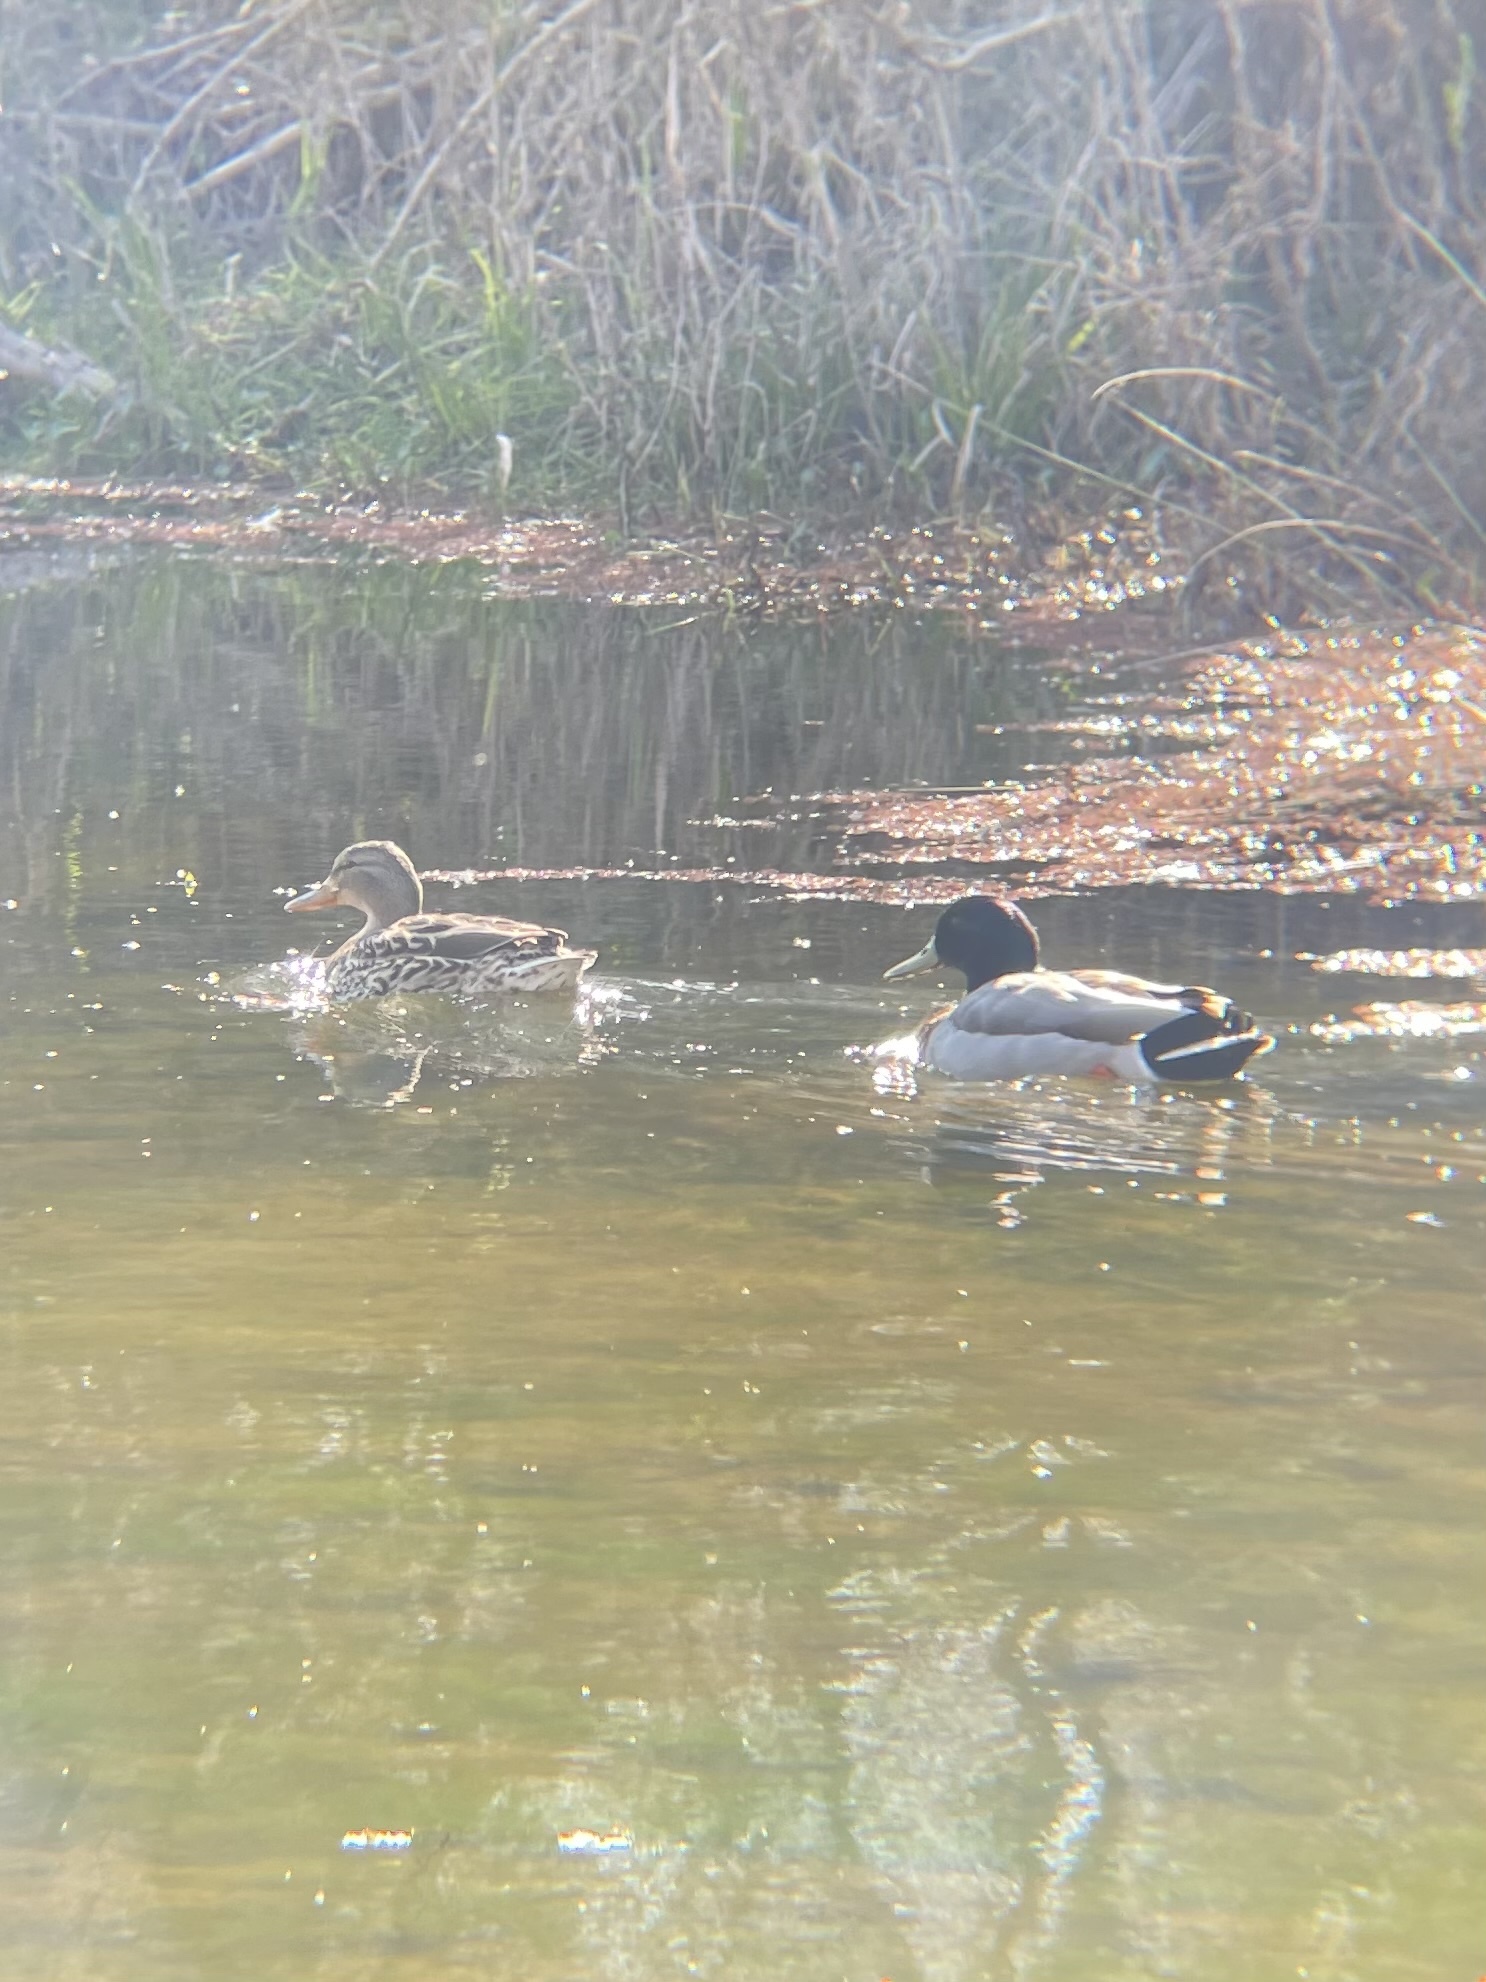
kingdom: Animalia
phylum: Chordata
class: Aves
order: Anseriformes
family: Anatidae
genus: Anas
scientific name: Anas platyrhynchos
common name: Mallard
